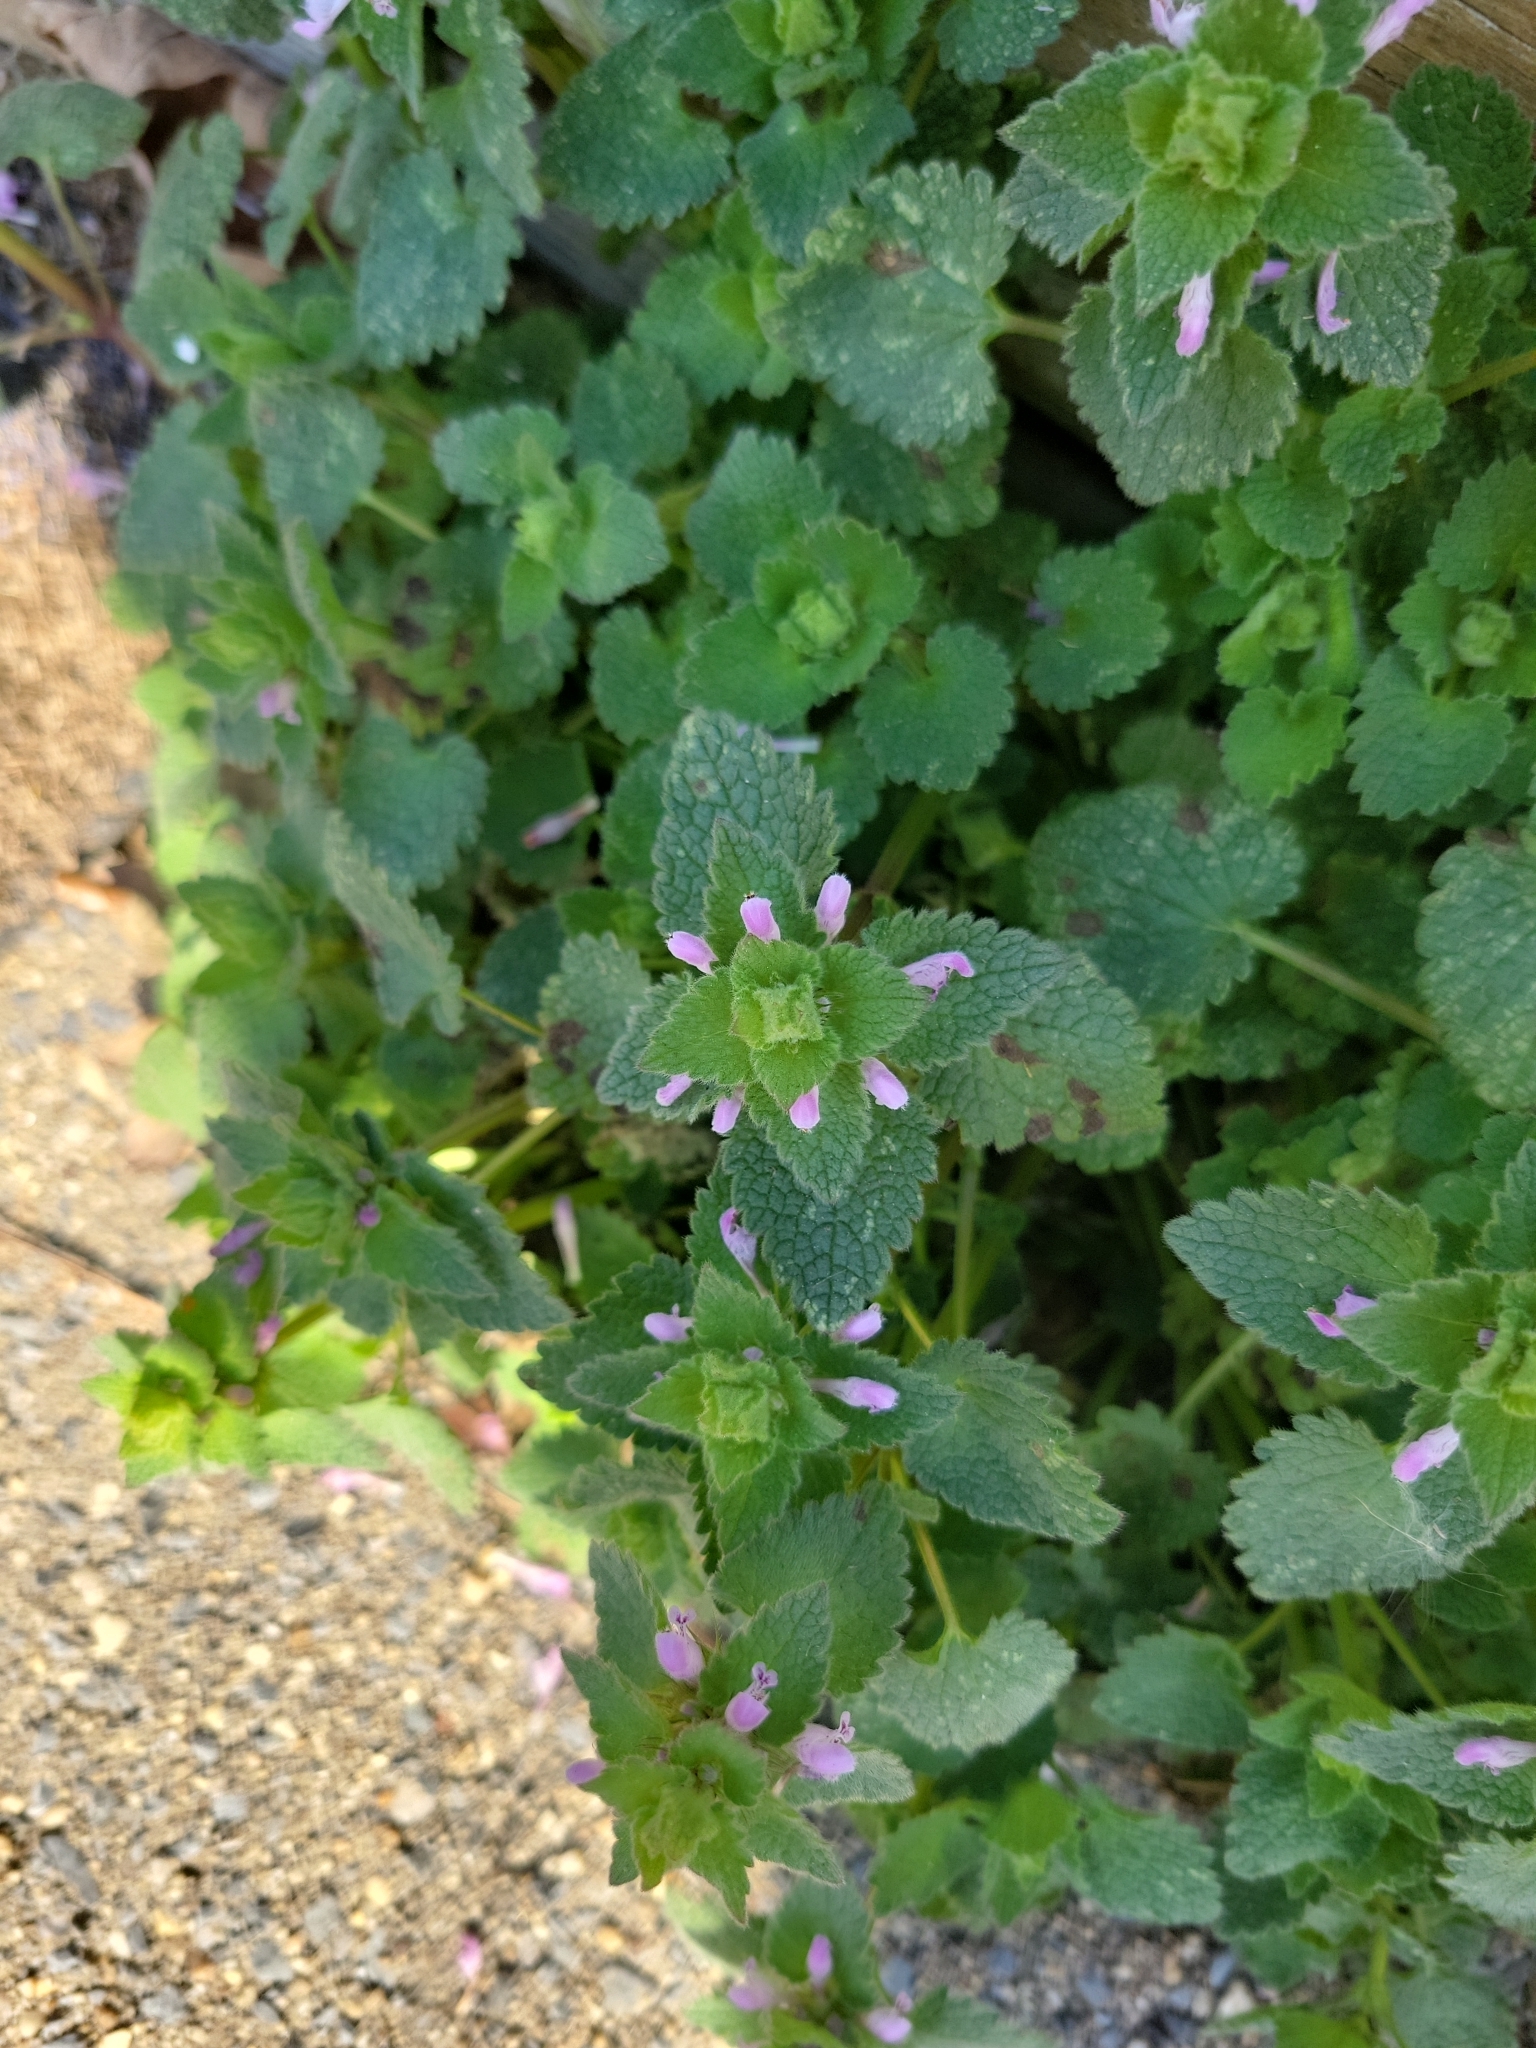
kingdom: Plantae
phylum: Tracheophyta
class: Magnoliopsida
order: Lamiales
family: Lamiaceae
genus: Lamium
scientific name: Lamium purpureum
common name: Red dead-nettle
